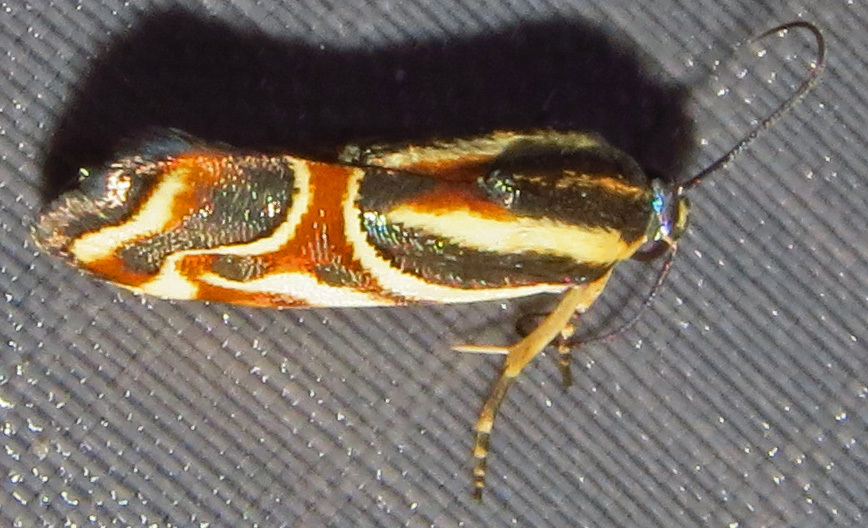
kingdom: Animalia
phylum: Arthropoda
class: Insecta
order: Lepidoptera
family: Noctuidae
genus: Spragueia
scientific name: Spragueia magnifica
